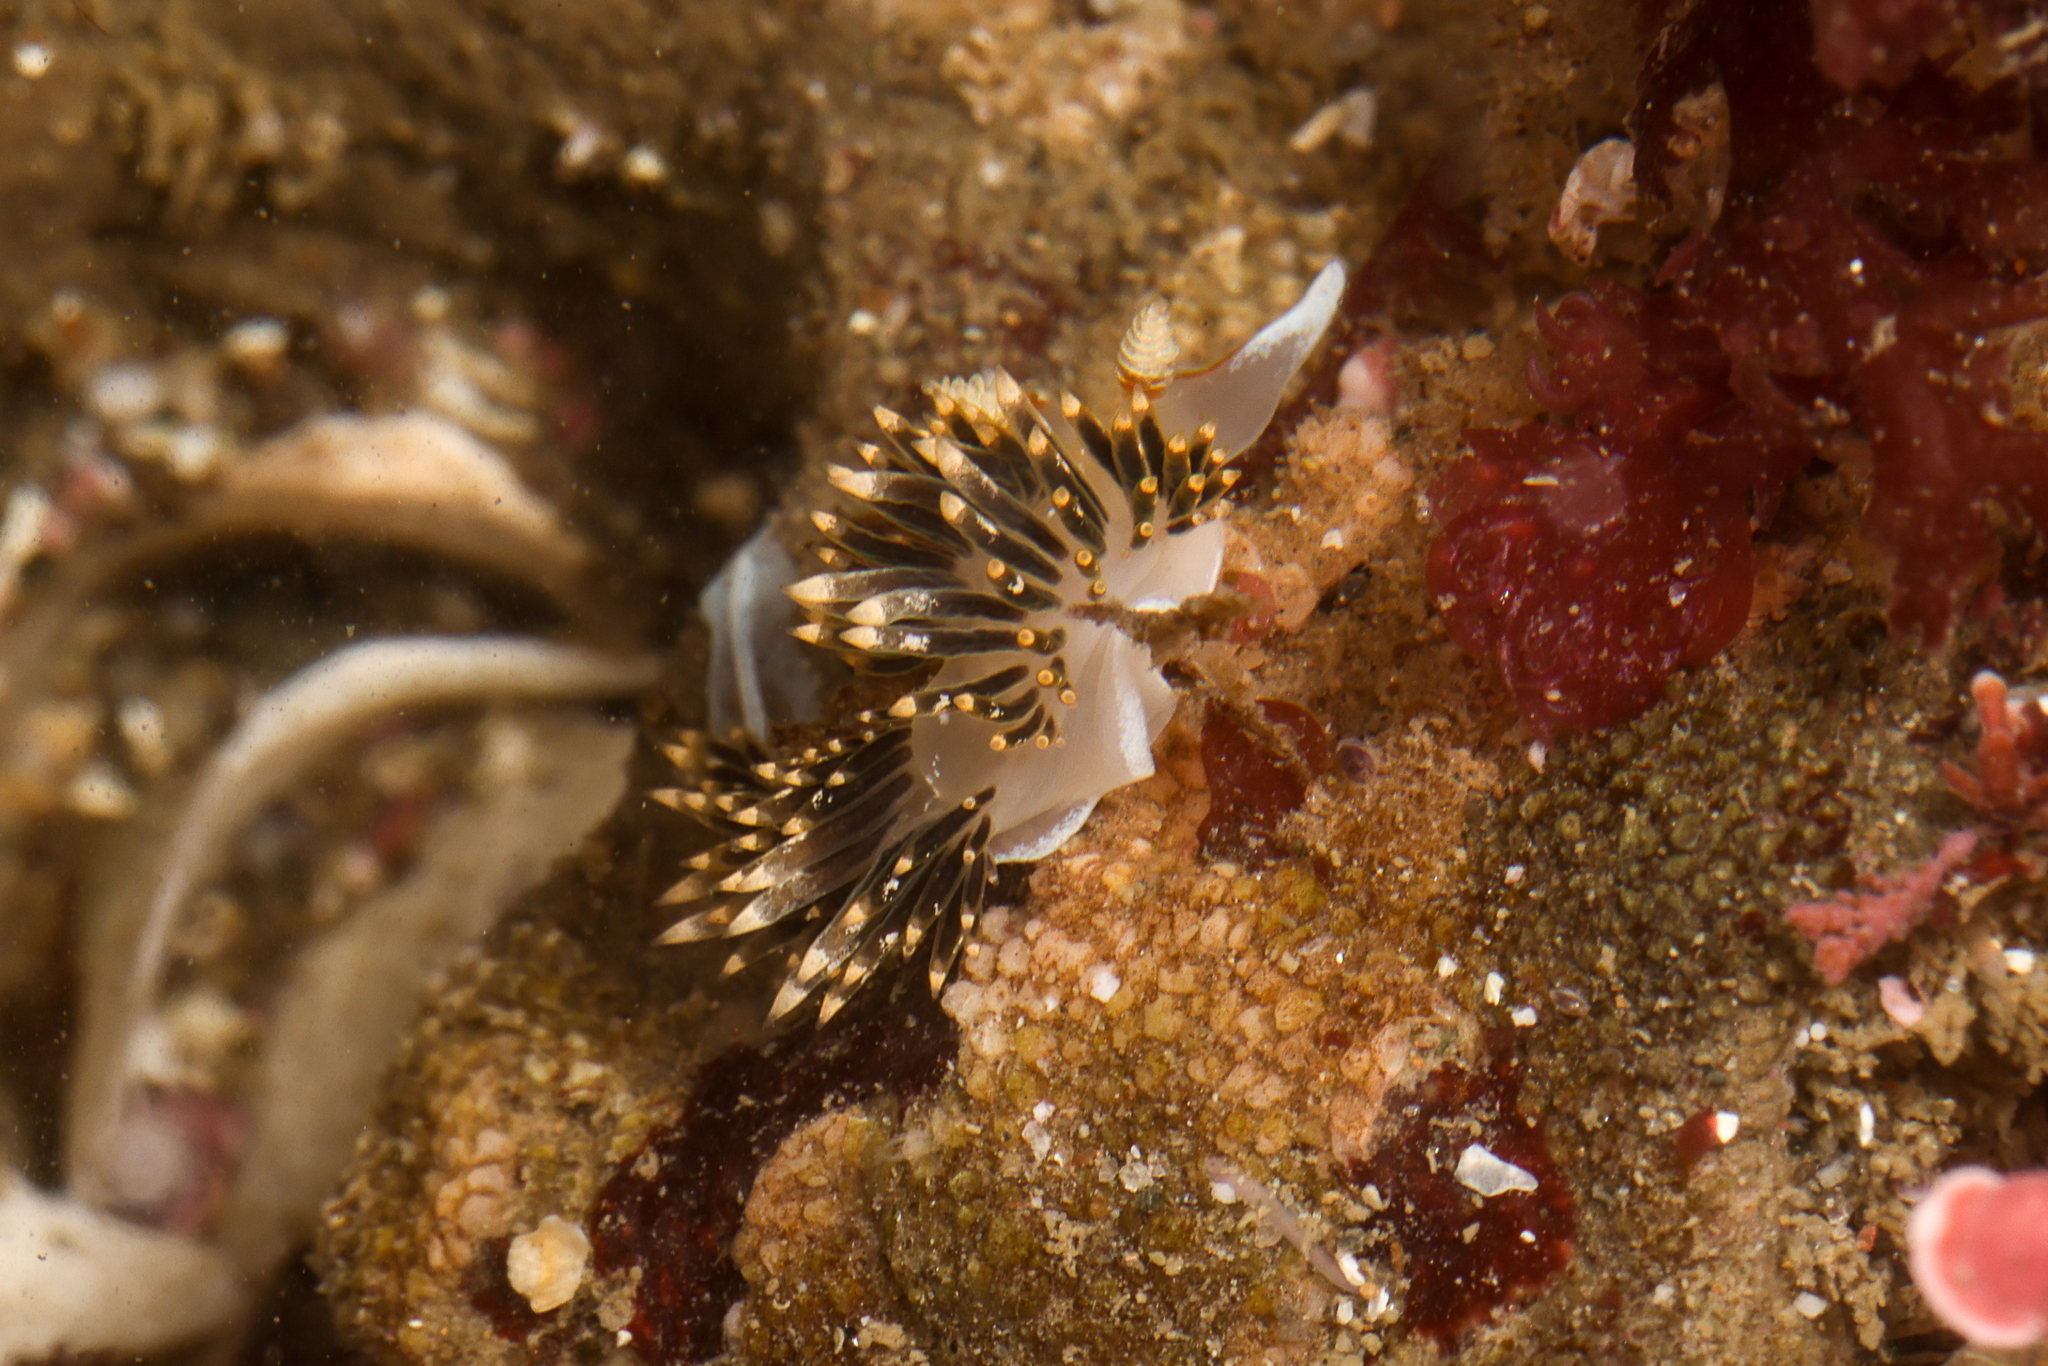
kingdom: Animalia
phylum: Mollusca
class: Gastropoda
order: Nudibranchia
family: Facelinidae
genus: Phidiana
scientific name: Phidiana hiltoni
